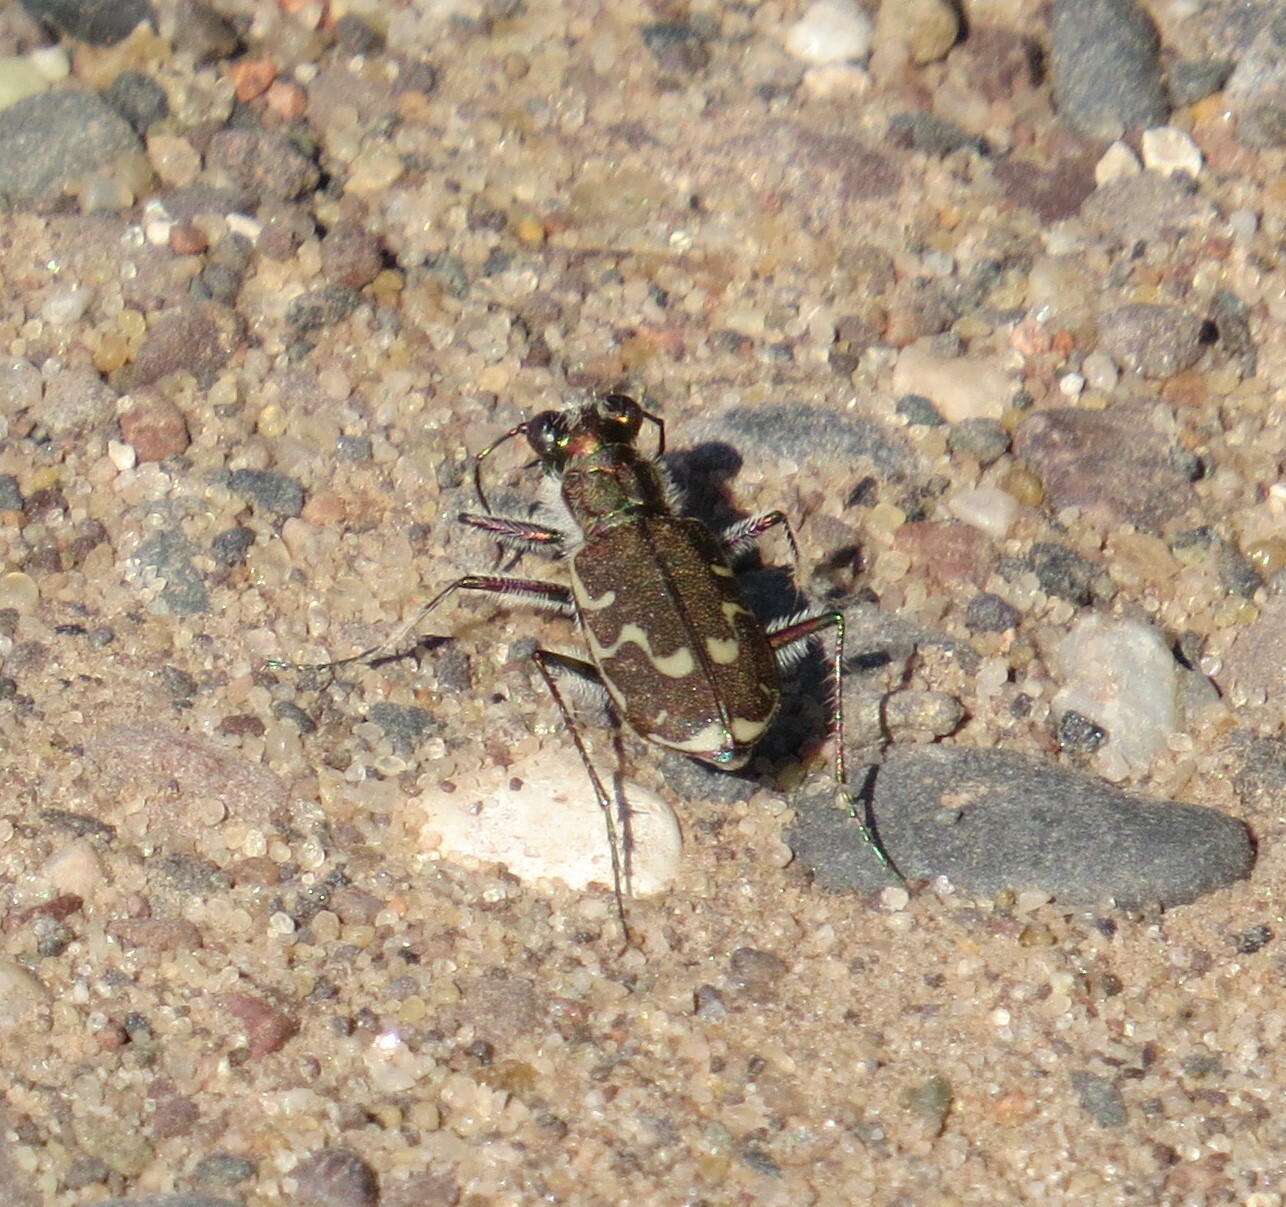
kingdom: Animalia
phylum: Arthropoda
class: Insecta
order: Coleoptera
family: Carabidae
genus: Cicindela
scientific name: Cicindela repanda
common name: Bronzed tiger beetle
